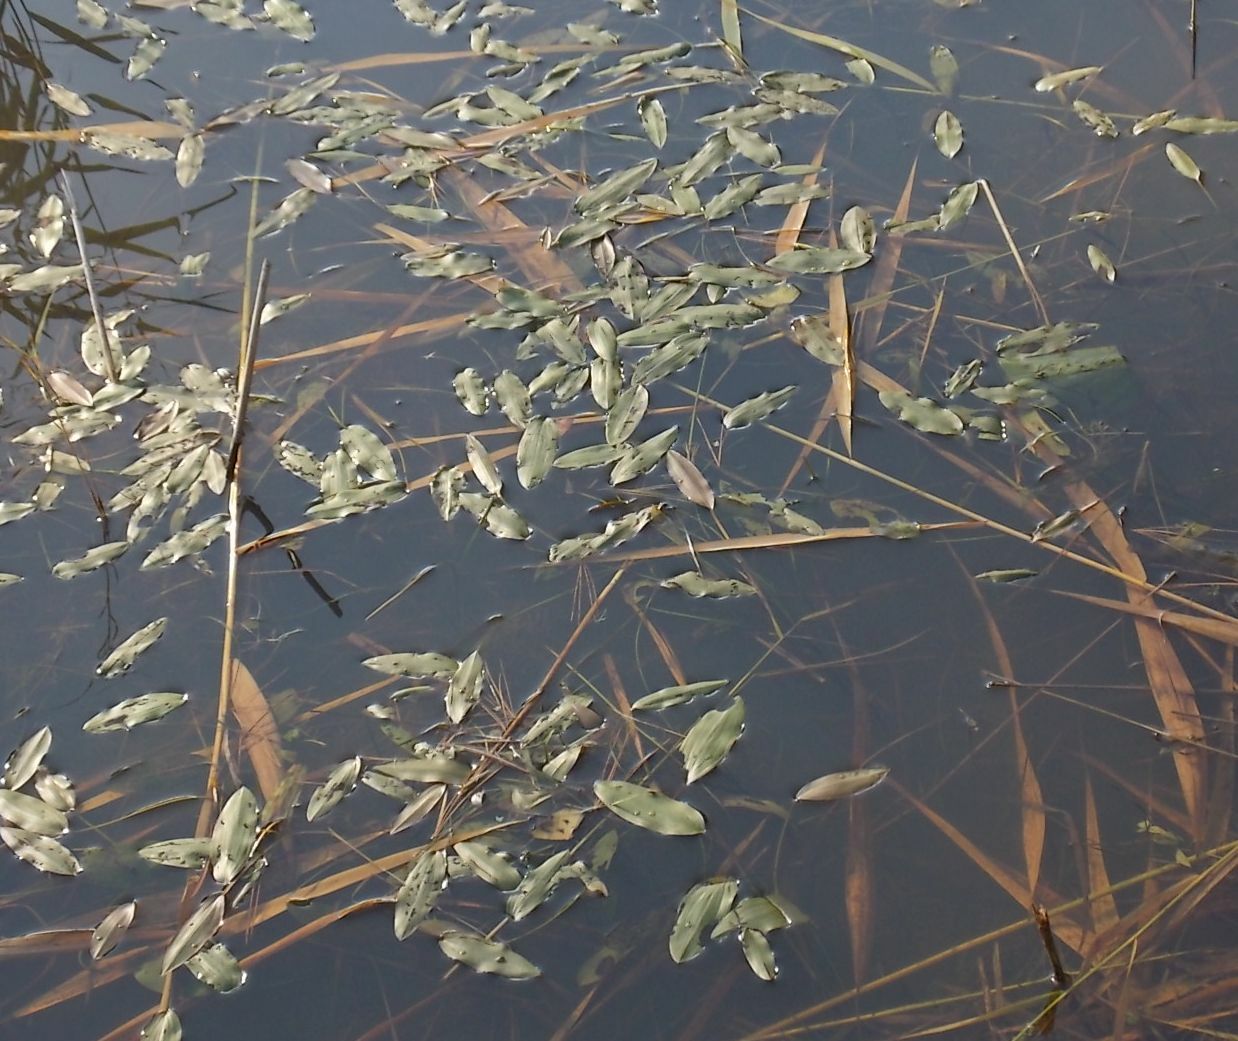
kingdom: Plantae
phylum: Tracheophyta
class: Liliopsida
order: Alismatales
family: Potamogetonaceae
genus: Potamogeton
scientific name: Potamogeton natans
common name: Broad-leaved pondweed
